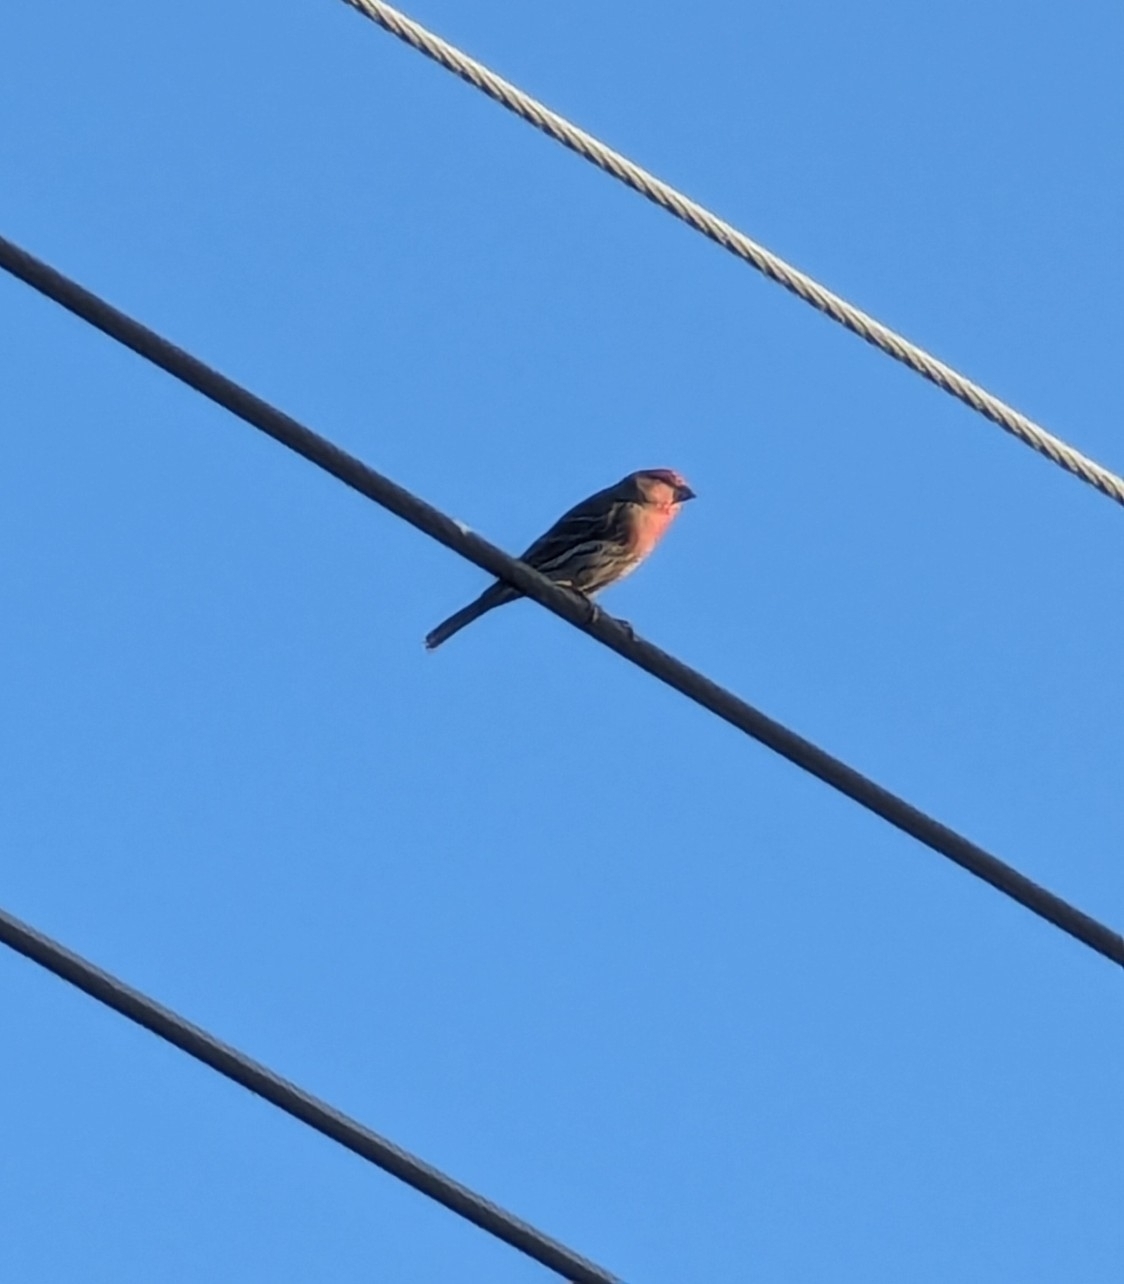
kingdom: Animalia
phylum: Chordata
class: Aves
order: Passeriformes
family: Fringillidae
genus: Haemorhous
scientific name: Haemorhous mexicanus
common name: House finch
